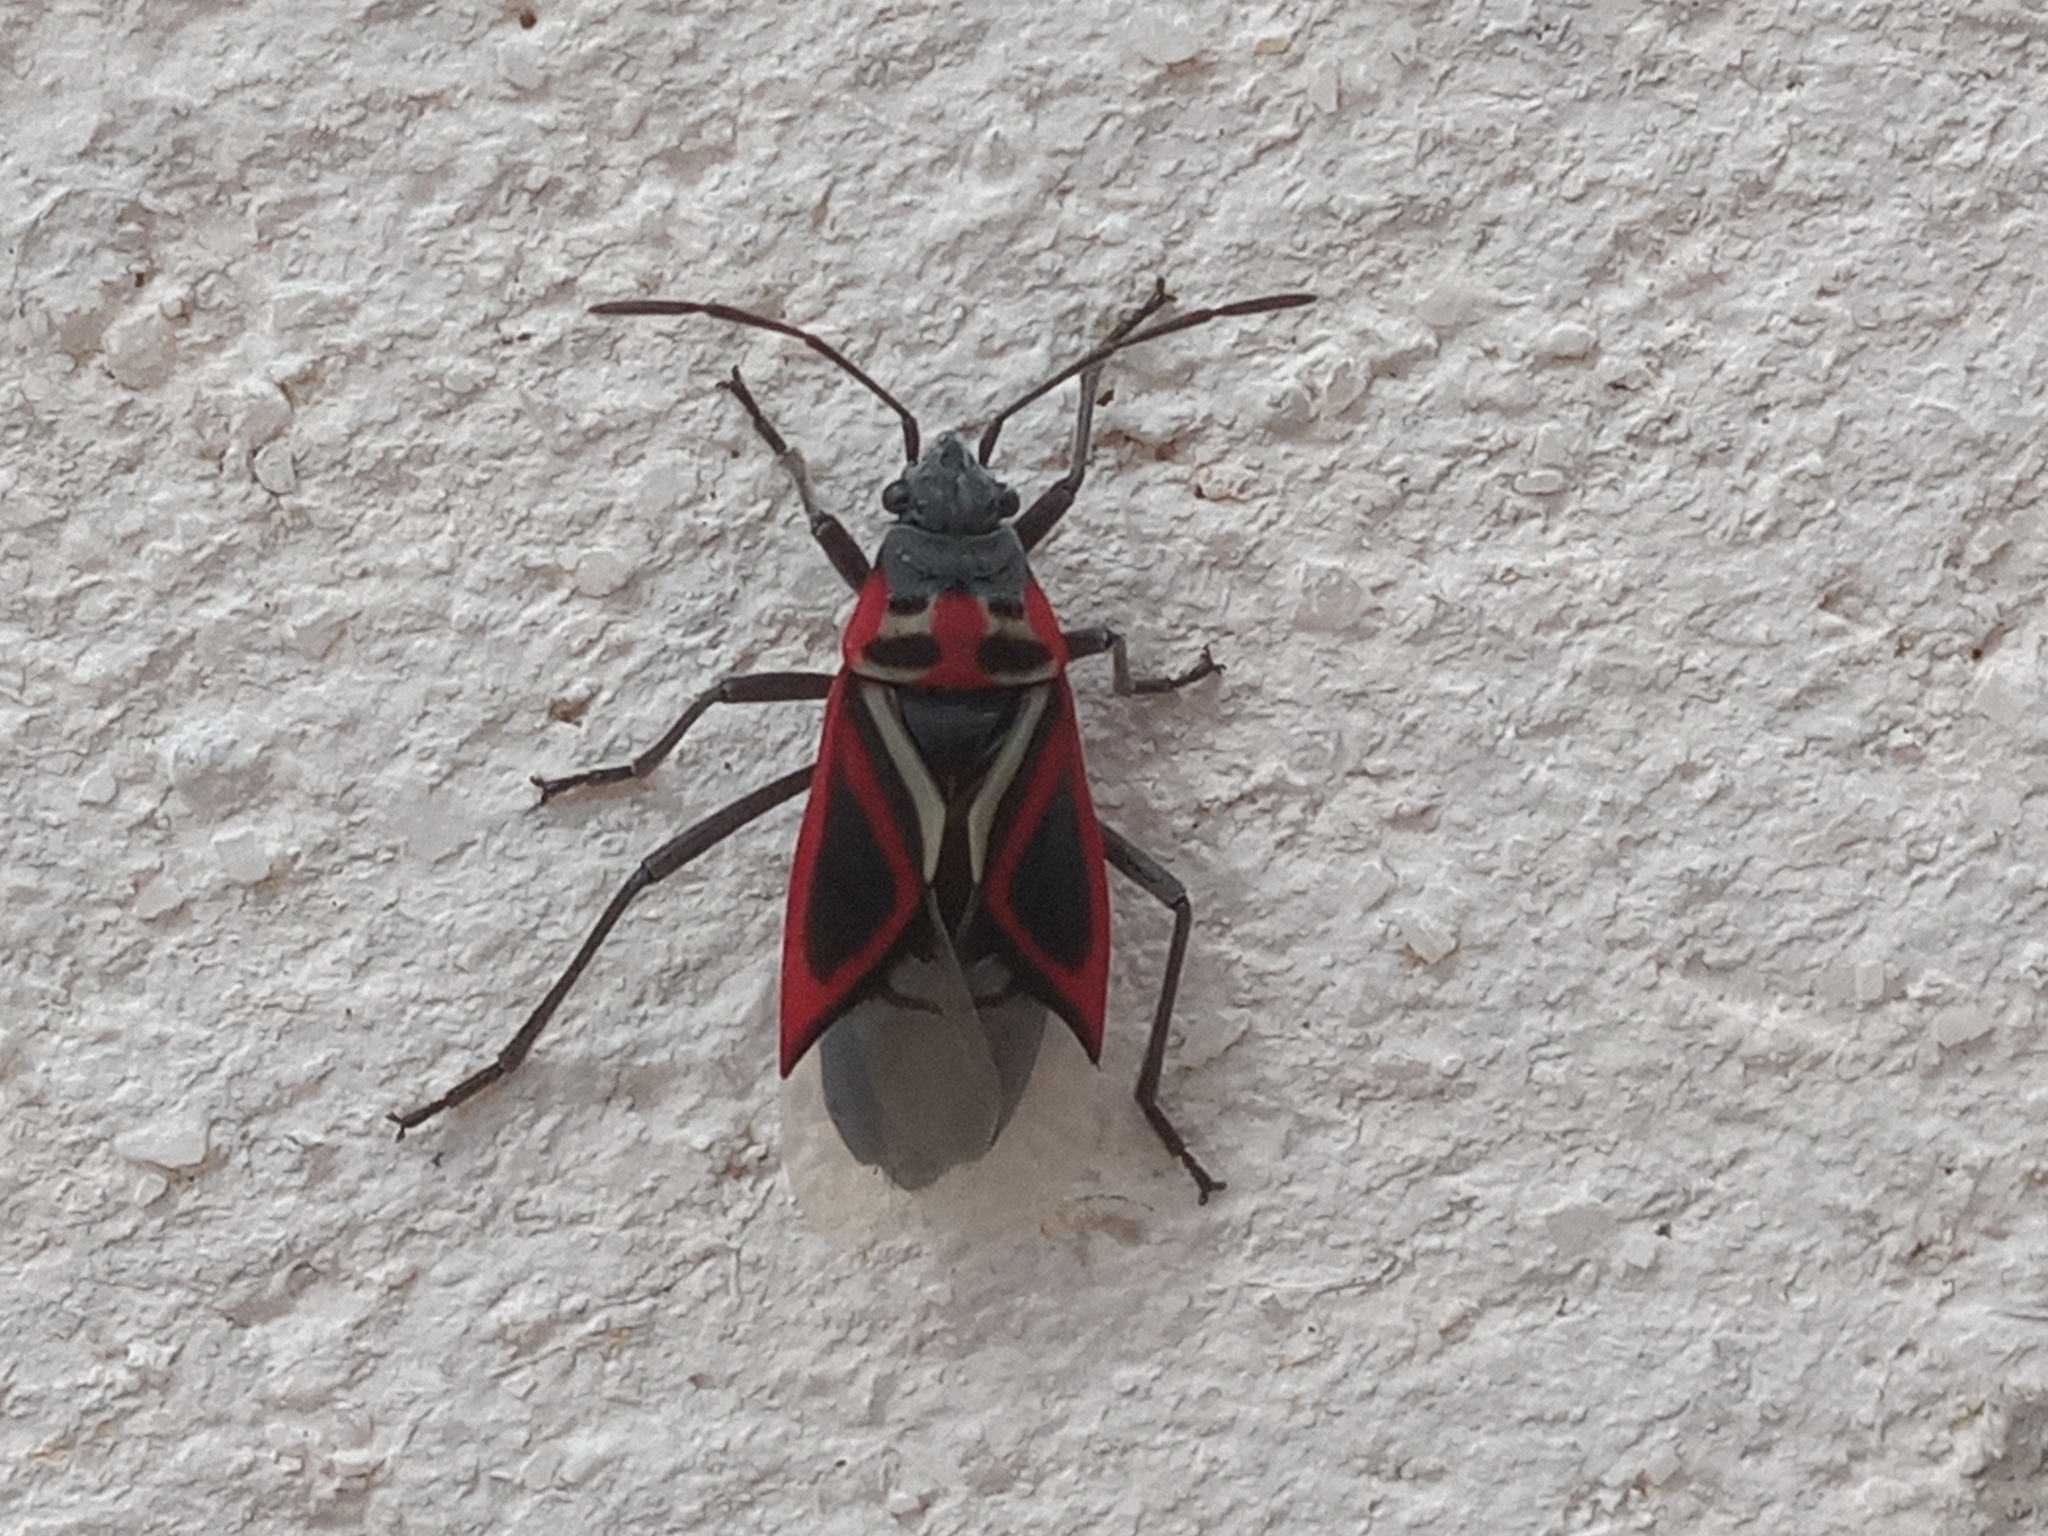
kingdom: Animalia
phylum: Arthropoda
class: Insecta
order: Hemiptera
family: Lygaeidae
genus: Anochrostomus
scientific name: Anochrostomus formosus
